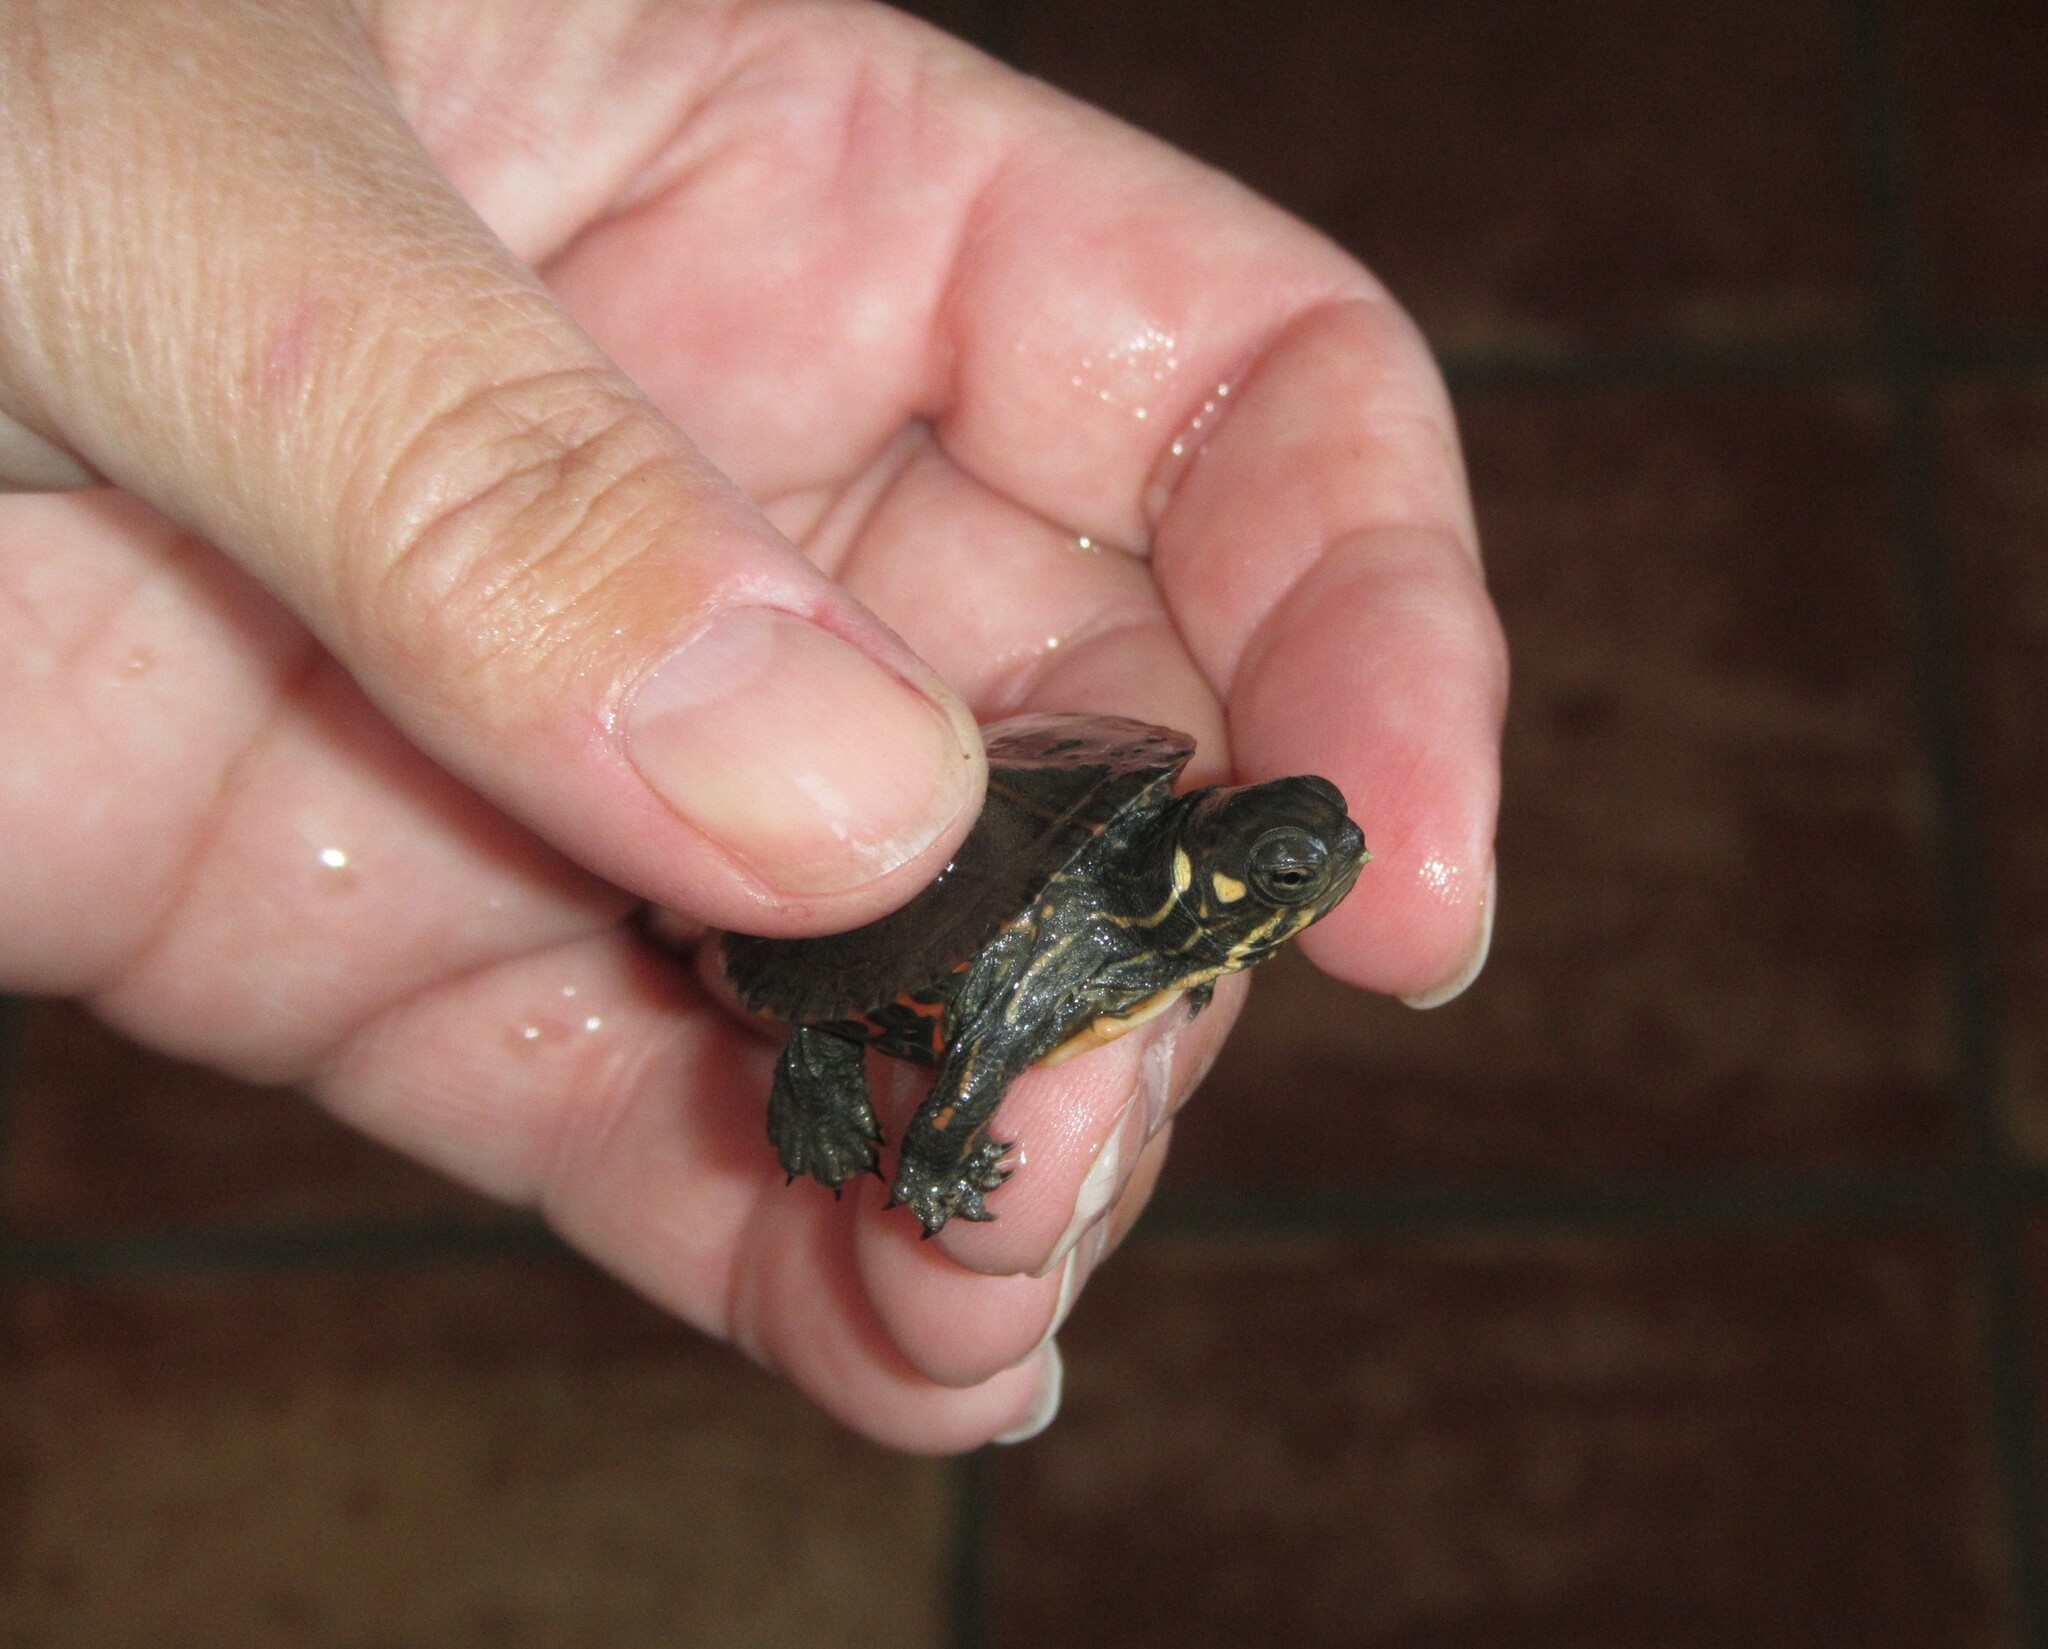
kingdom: Animalia
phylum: Chordata
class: Testudines
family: Emydidae
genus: Chrysemys
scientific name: Chrysemys picta
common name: Painted turtle
